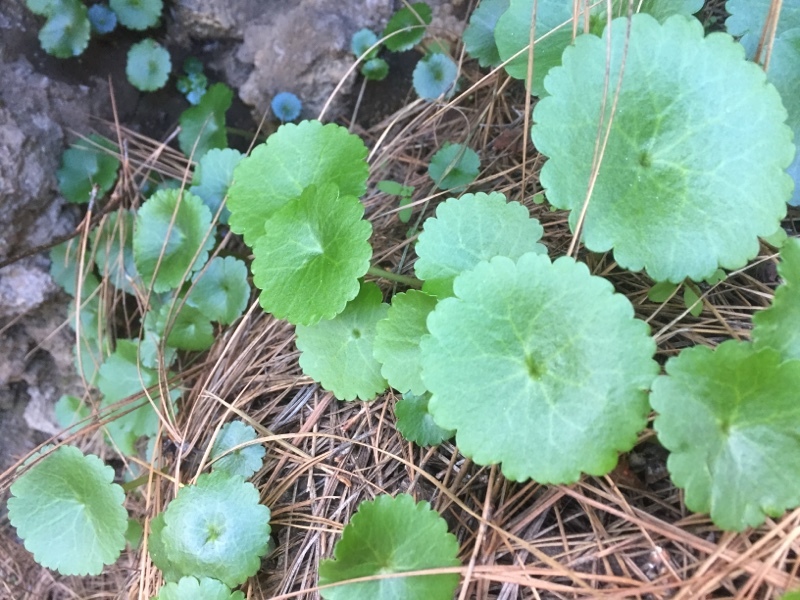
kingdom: Plantae
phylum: Tracheophyta
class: Magnoliopsida
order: Saxifragales
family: Crassulaceae
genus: Umbilicus
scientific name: Umbilicus horizontalis
